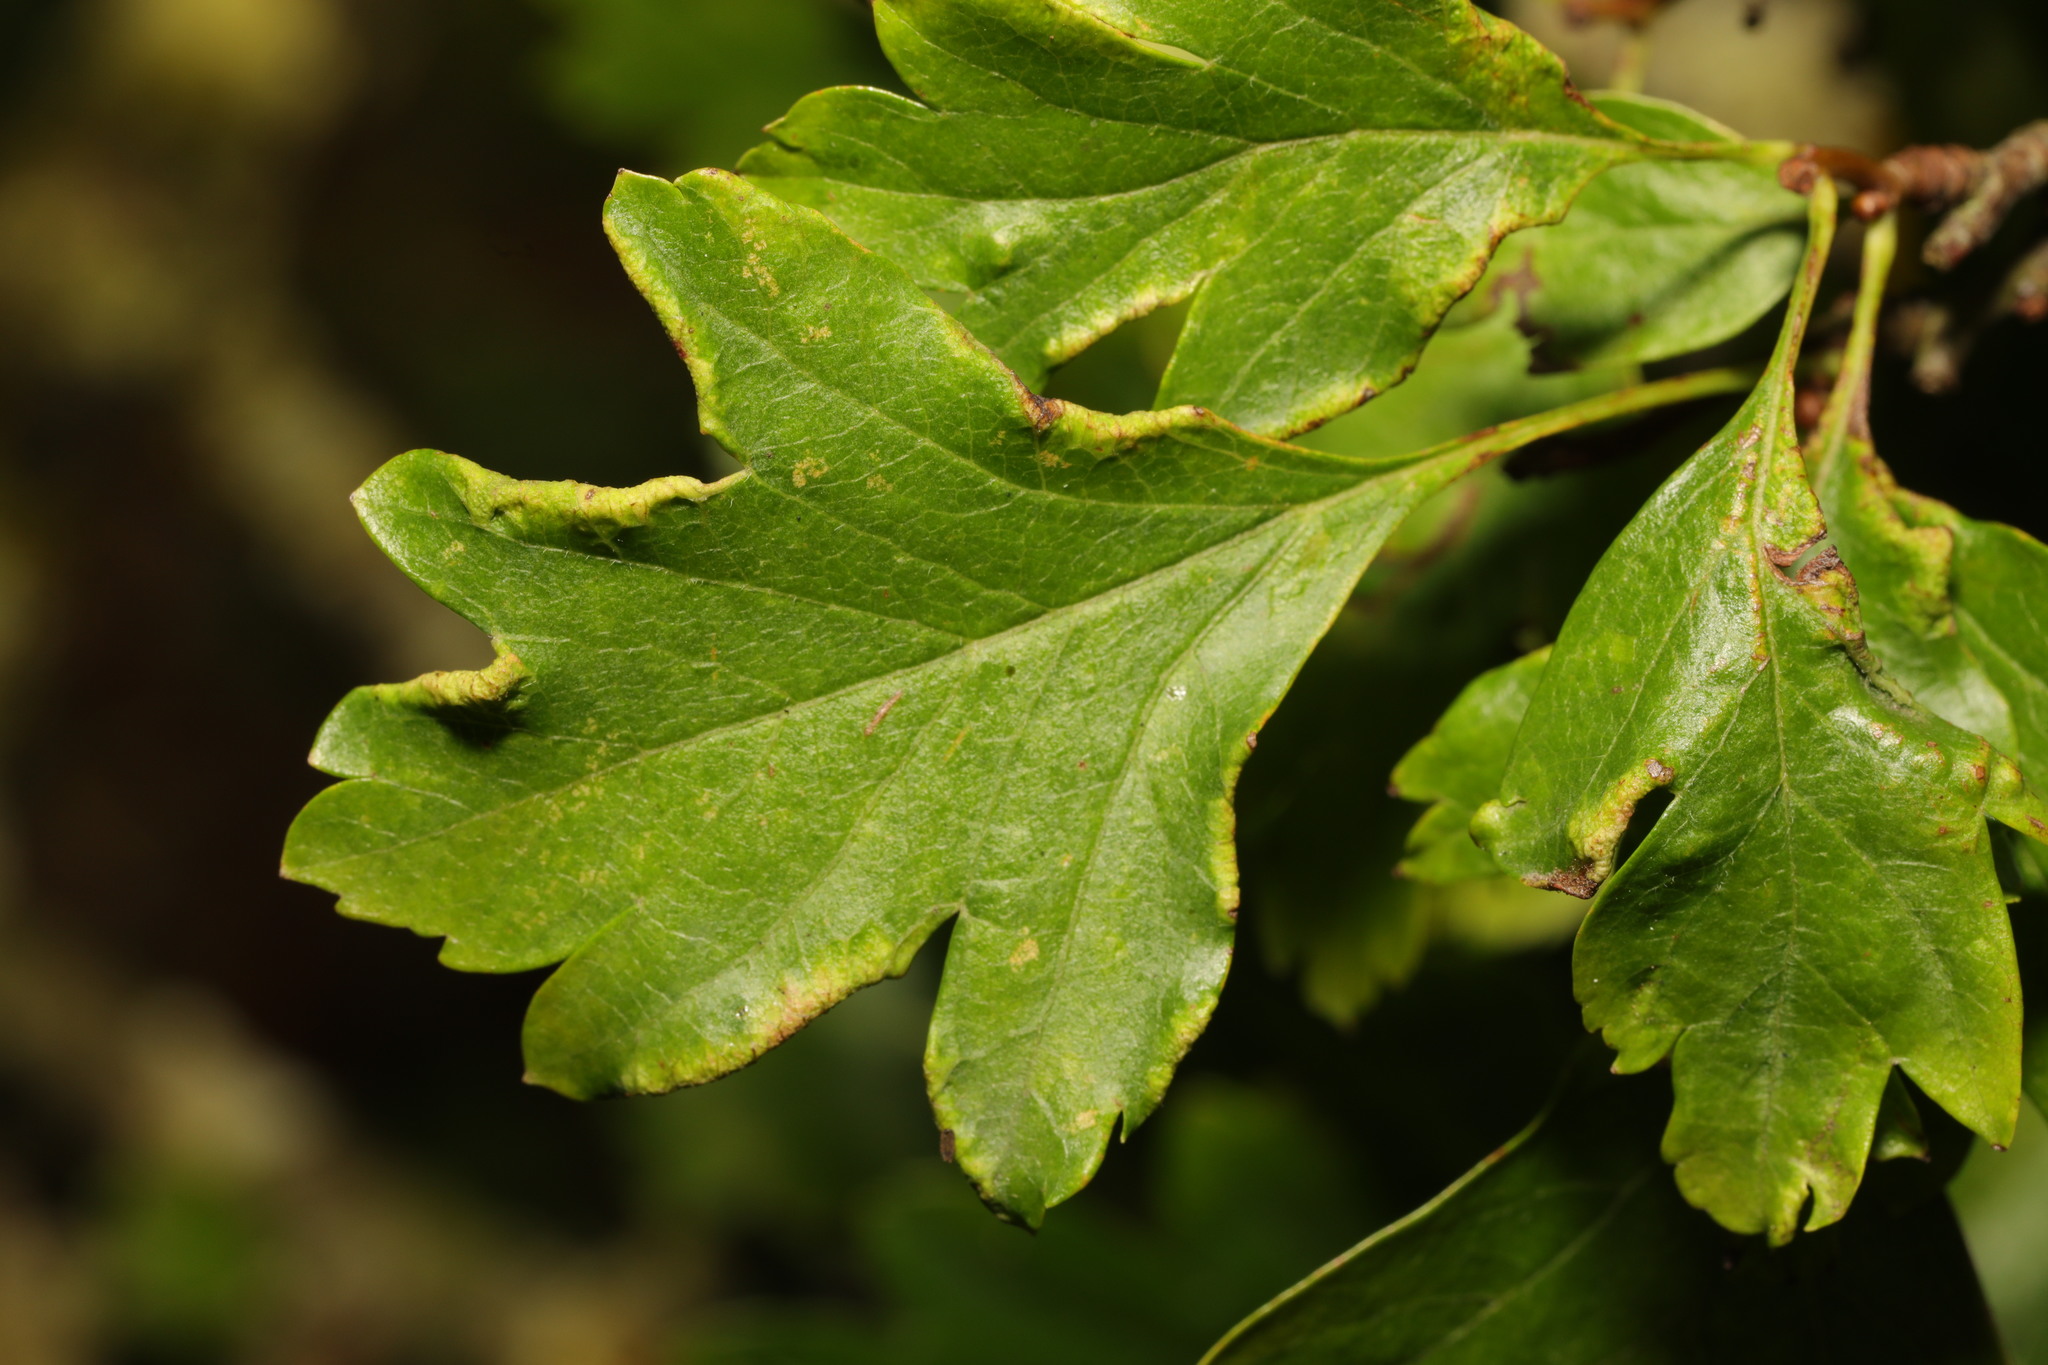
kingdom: Animalia
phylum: Arthropoda
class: Arachnida
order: Trombidiformes
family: Eriophyidae
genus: Phyllocoptes
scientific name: Phyllocoptes goniothorax
